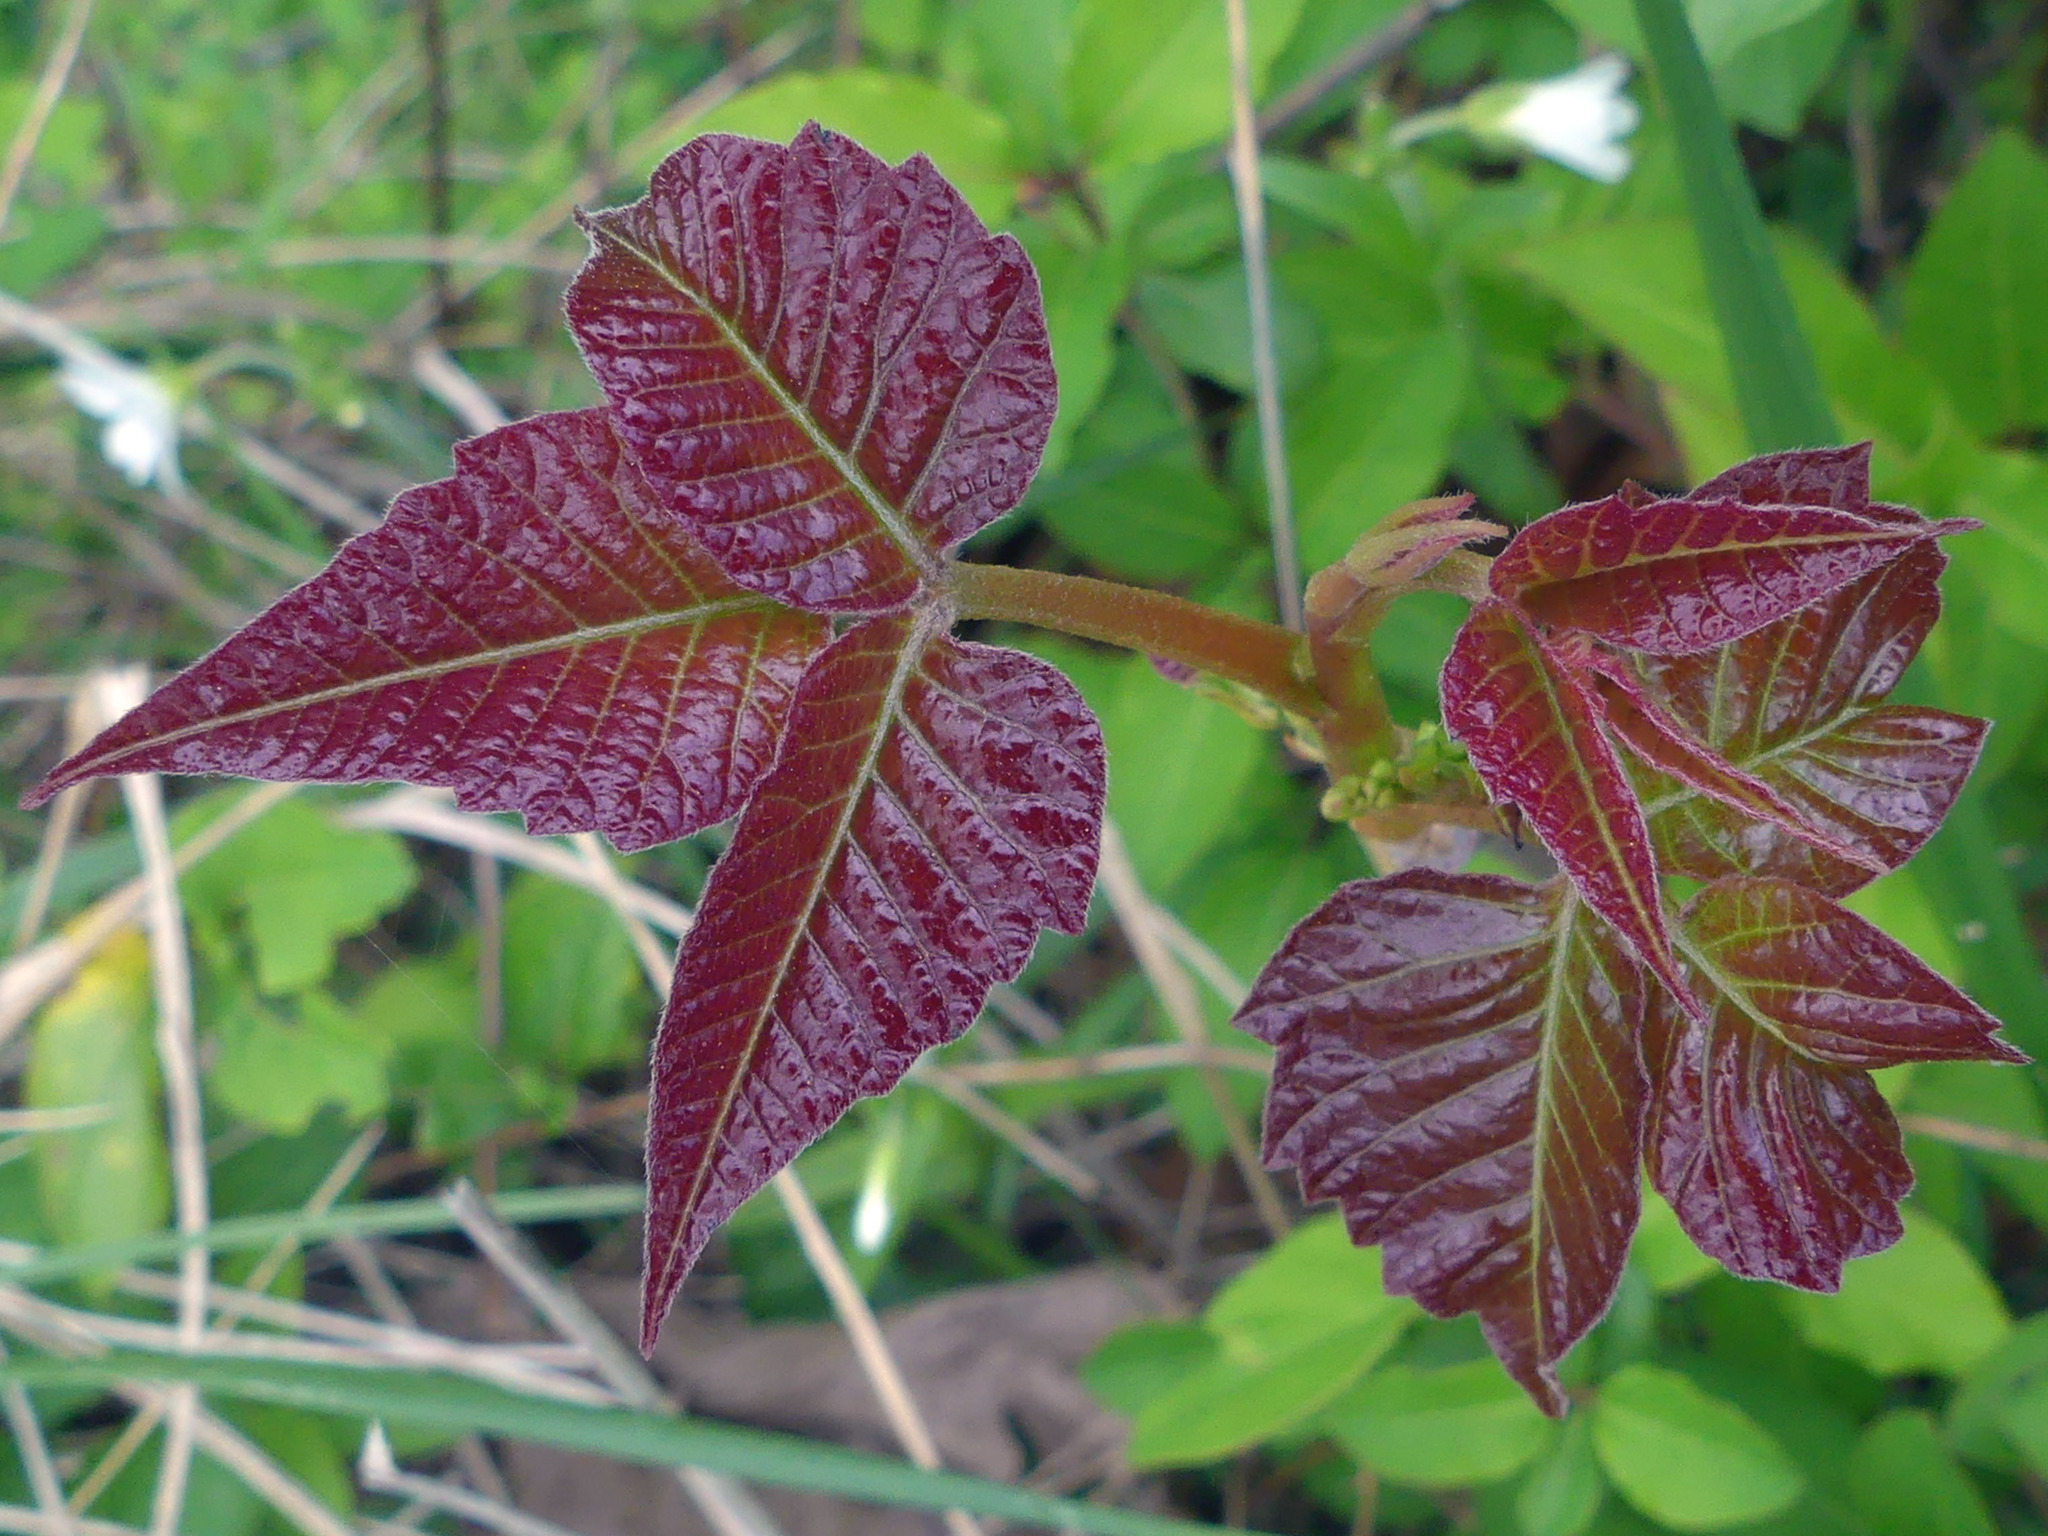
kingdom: Plantae
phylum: Tracheophyta
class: Magnoliopsida
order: Sapindales
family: Anacardiaceae
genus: Toxicodendron
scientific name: Toxicodendron radicans
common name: Poison ivy
